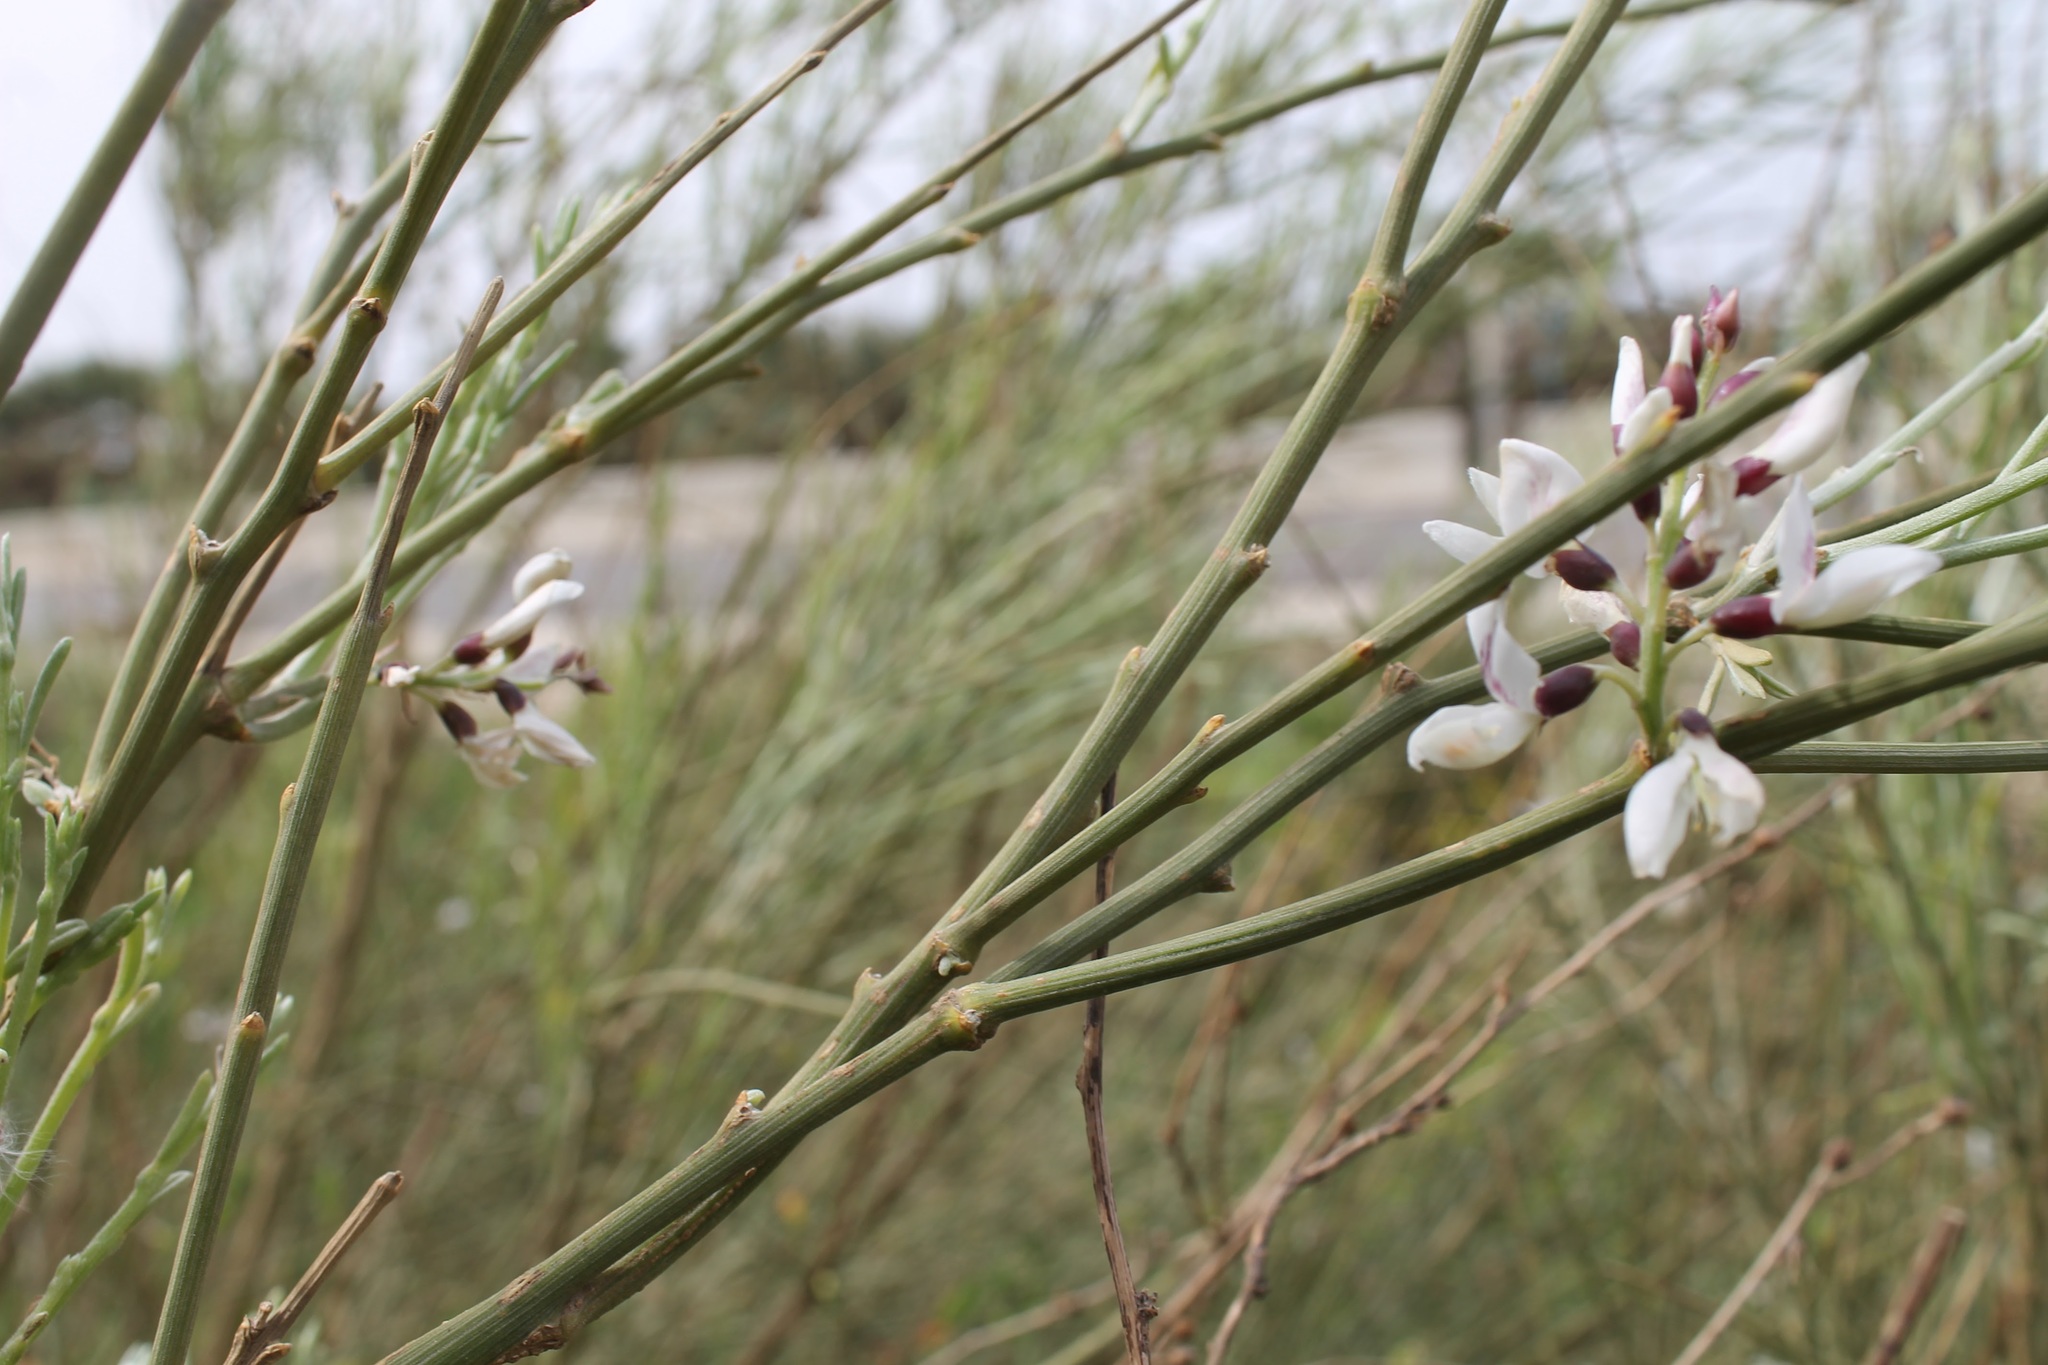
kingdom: Plantae
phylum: Tracheophyta
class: Magnoliopsida
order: Fabales
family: Fabaceae
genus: Retama
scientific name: Retama raetam
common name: Retem
